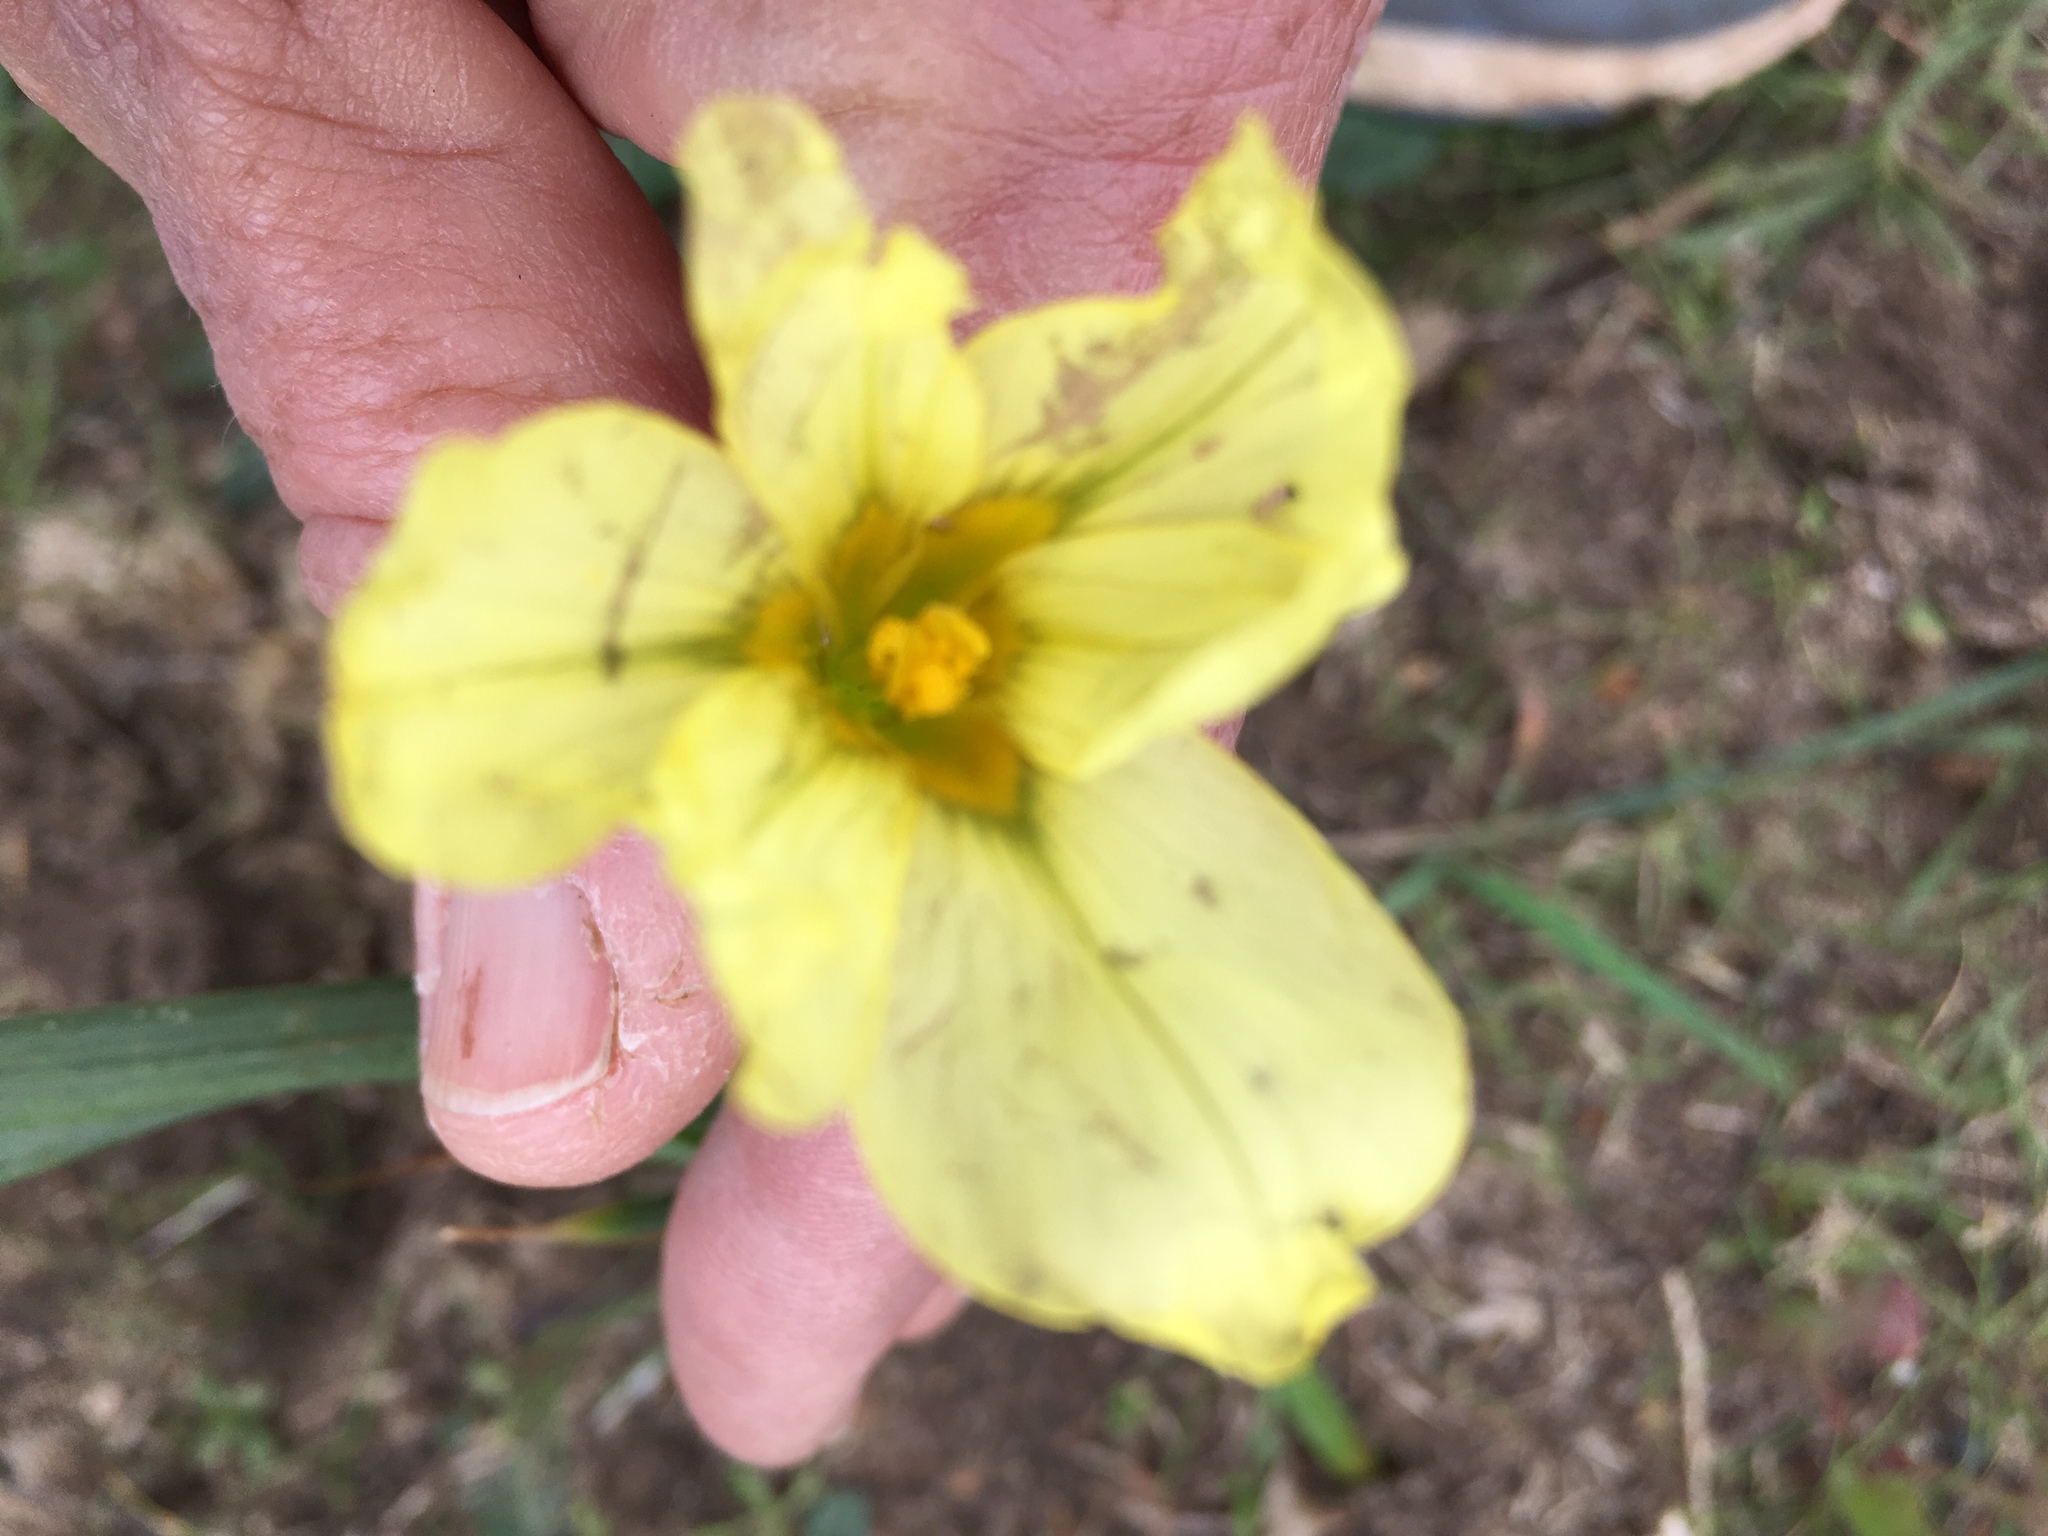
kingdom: Plantae
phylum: Tracheophyta
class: Liliopsida
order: Asparagales
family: Iridaceae
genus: Moraea
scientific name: Moraea collina
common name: Cape-tulip
